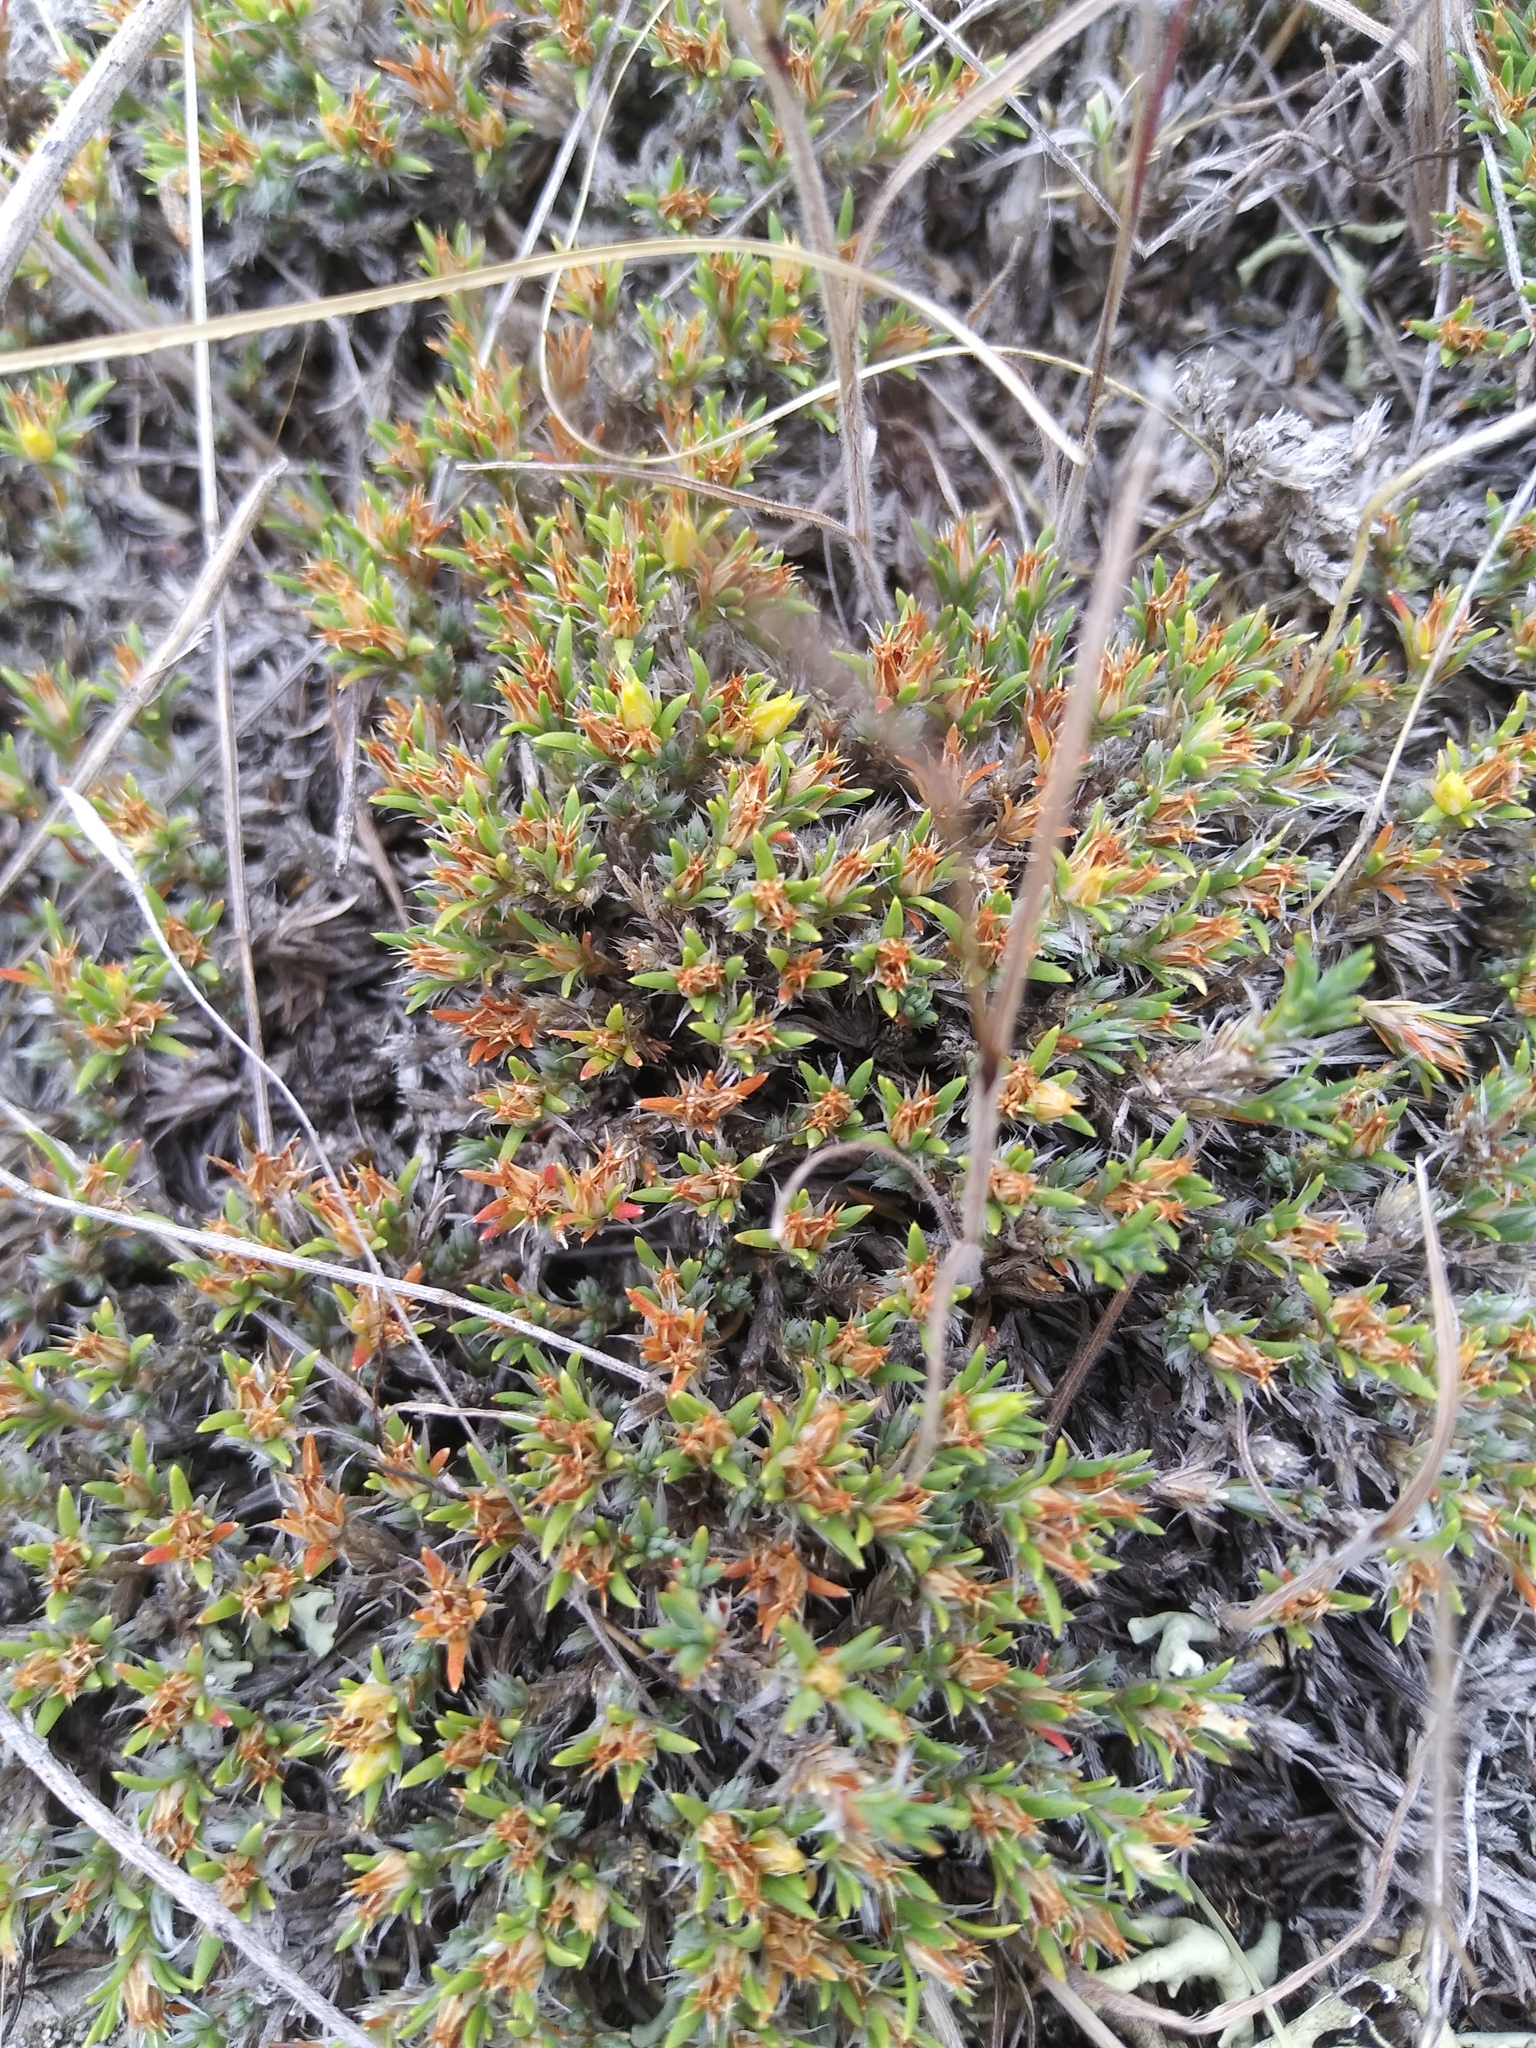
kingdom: Plantae
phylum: Tracheophyta
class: Magnoliopsida
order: Caryophyllales
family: Caryophyllaceae
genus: Paronychia
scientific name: Paronychia sessiliflora
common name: Creeping nailwort
